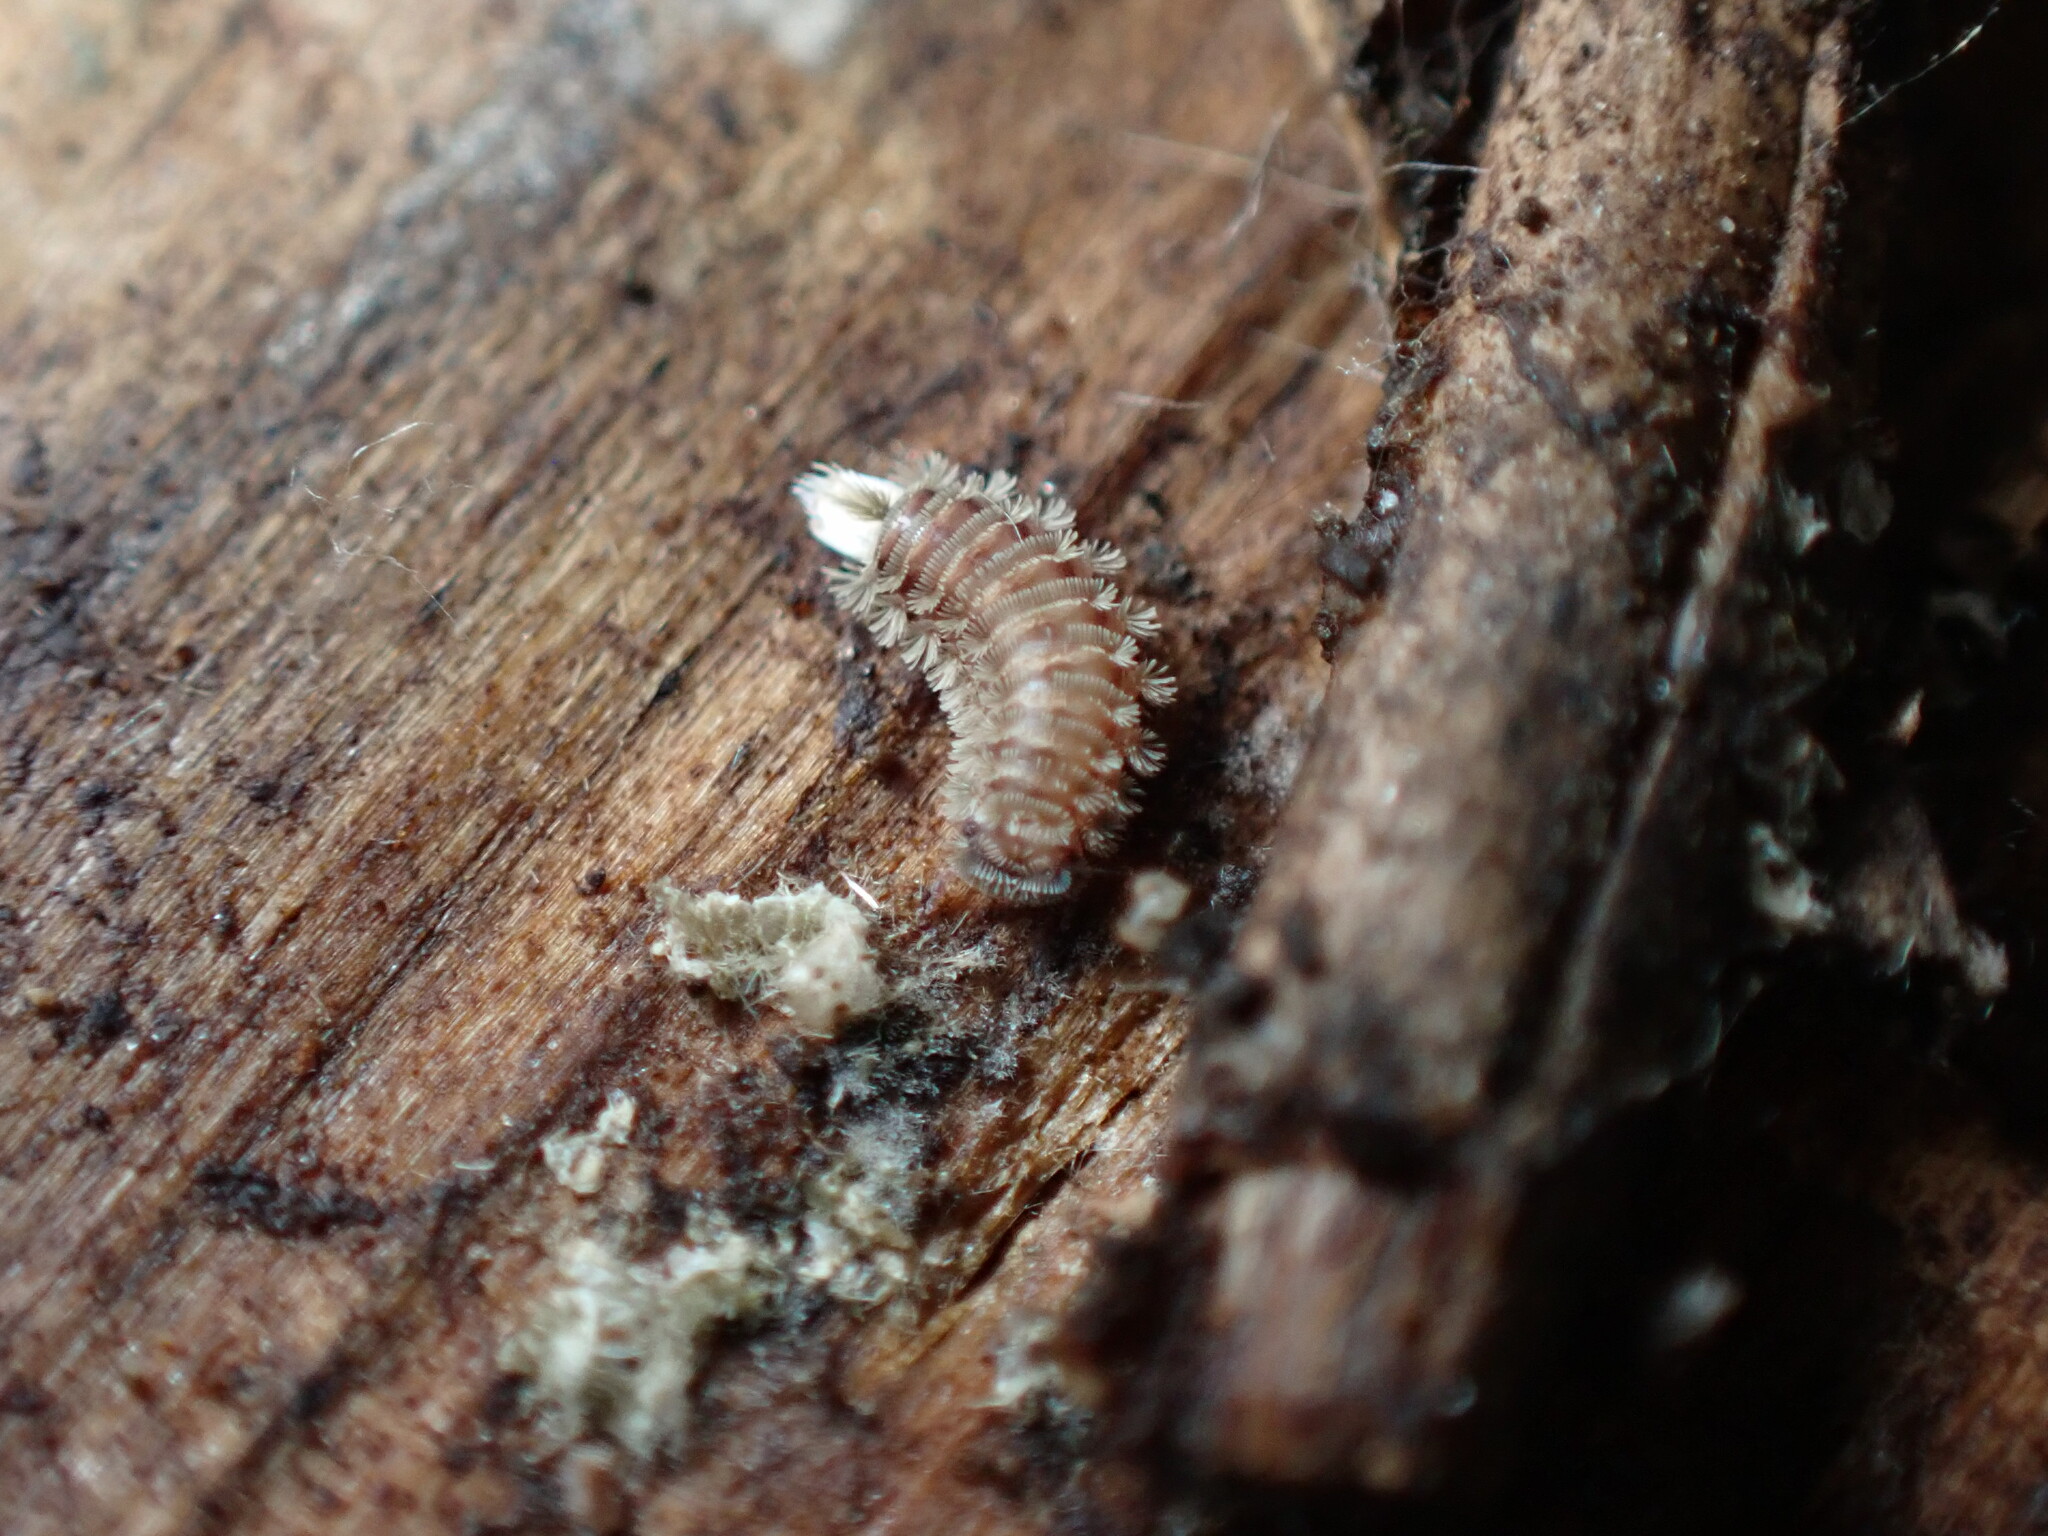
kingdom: Animalia
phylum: Arthropoda
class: Diplopoda
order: Polyxenida
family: Polyxenidae
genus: Polyxenus
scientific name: Polyxenus lagurus
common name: Bristly millipede
